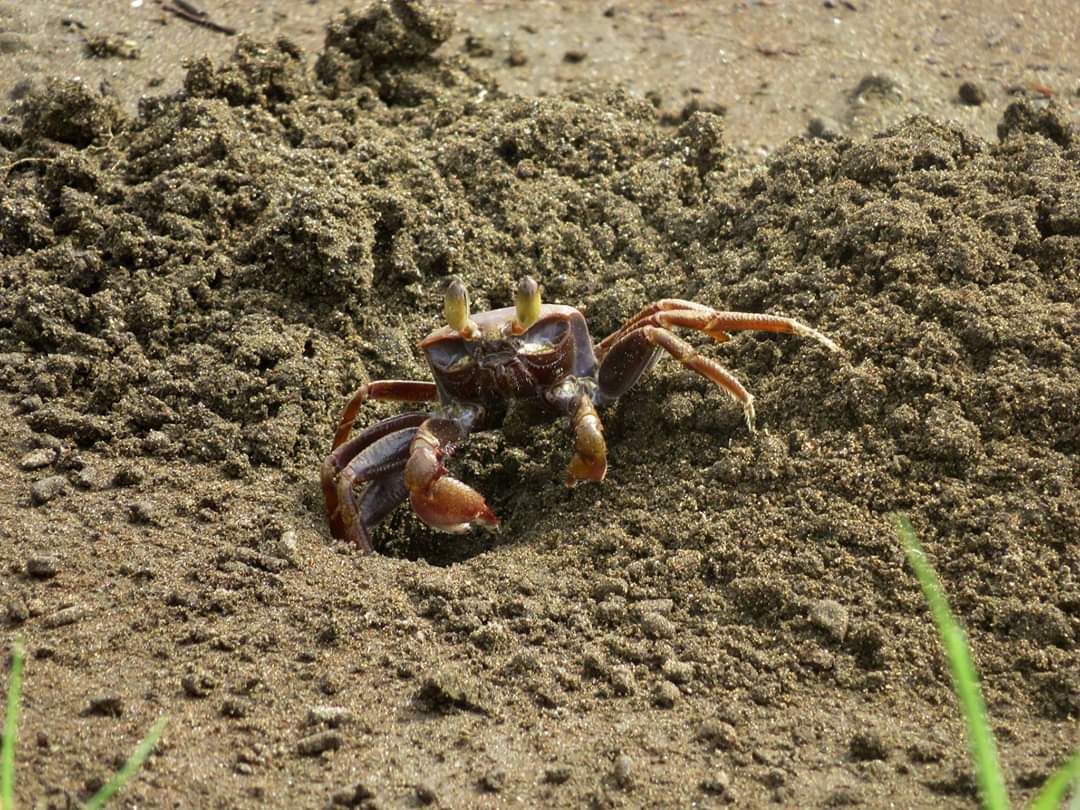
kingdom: Animalia
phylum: Arthropoda
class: Malacostraca
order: Decapoda
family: Ocypodidae
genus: Ocypode
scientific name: Ocypode ceratophthalmus
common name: Indo-pacific ghost crab
